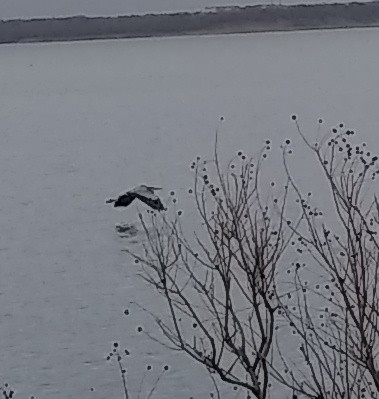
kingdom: Animalia
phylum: Chordata
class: Aves
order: Pelecaniformes
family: Ardeidae
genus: Ardea
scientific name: Ardea herodias
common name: Great blue heron
